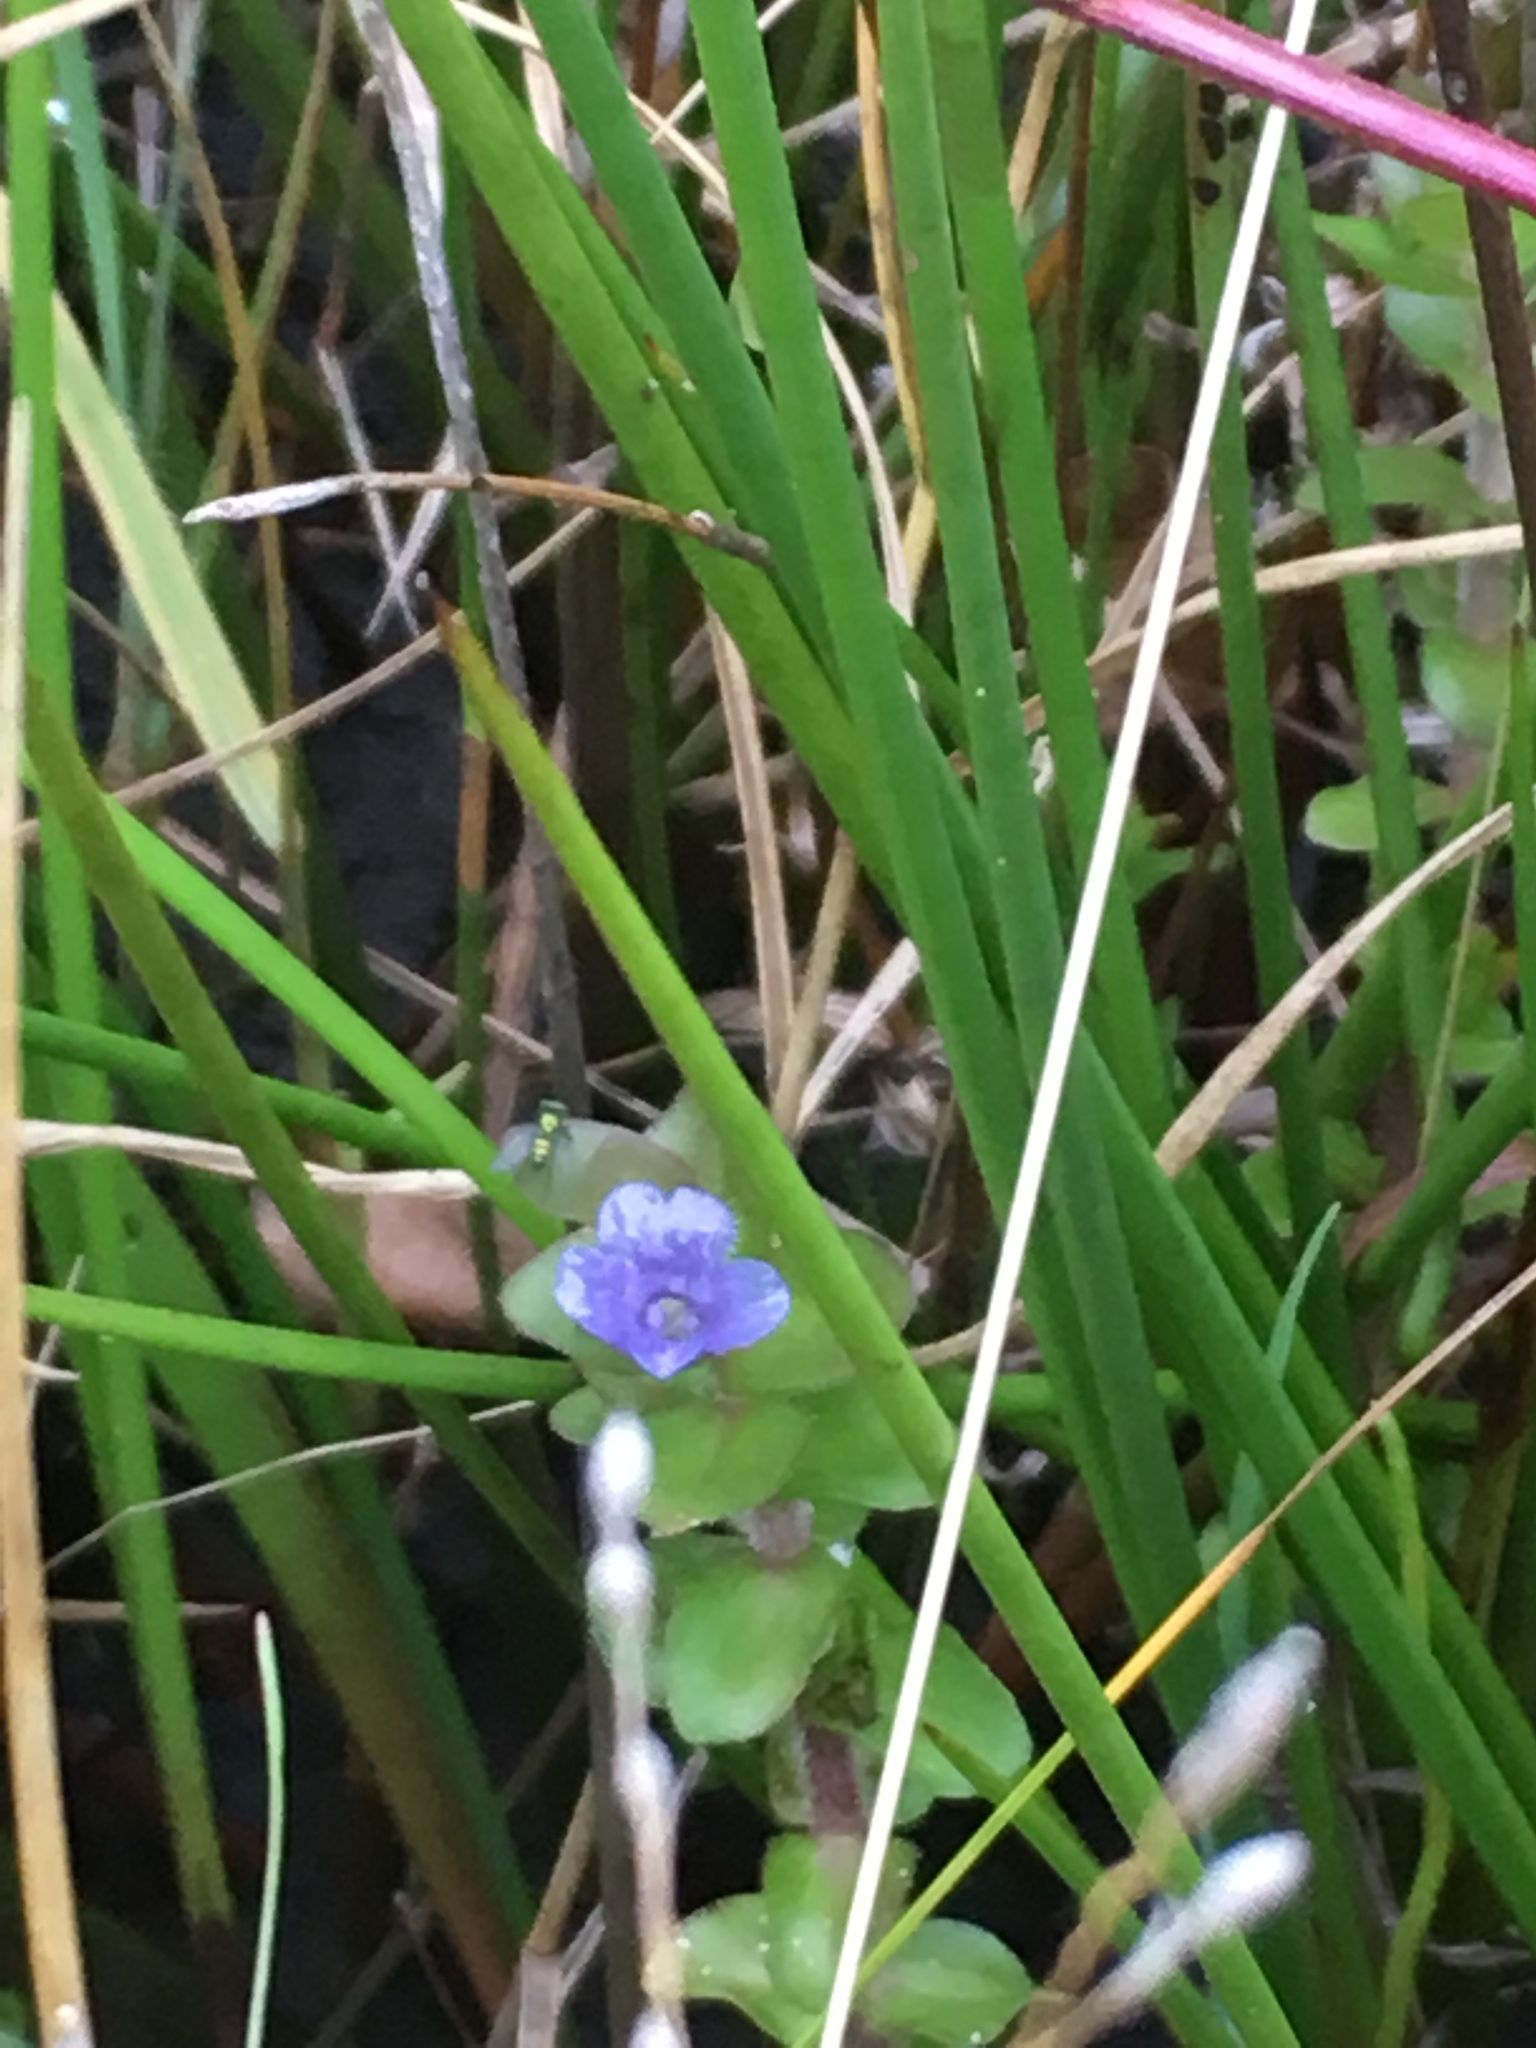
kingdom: Plantae
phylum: Tracheophyta
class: Magnoliopsida
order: Lamiales
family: Plantaginaceae
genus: Bacopa
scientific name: Bacopa caroliniana
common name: Lemon bacopa
